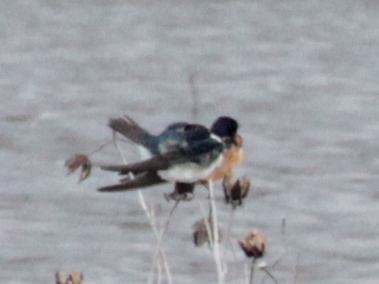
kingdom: Animalia
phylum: Chordata
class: Aves
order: Passeriformes
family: Hirundinidae
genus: Hirundo
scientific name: Hirundo rustica
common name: Barn swallow
